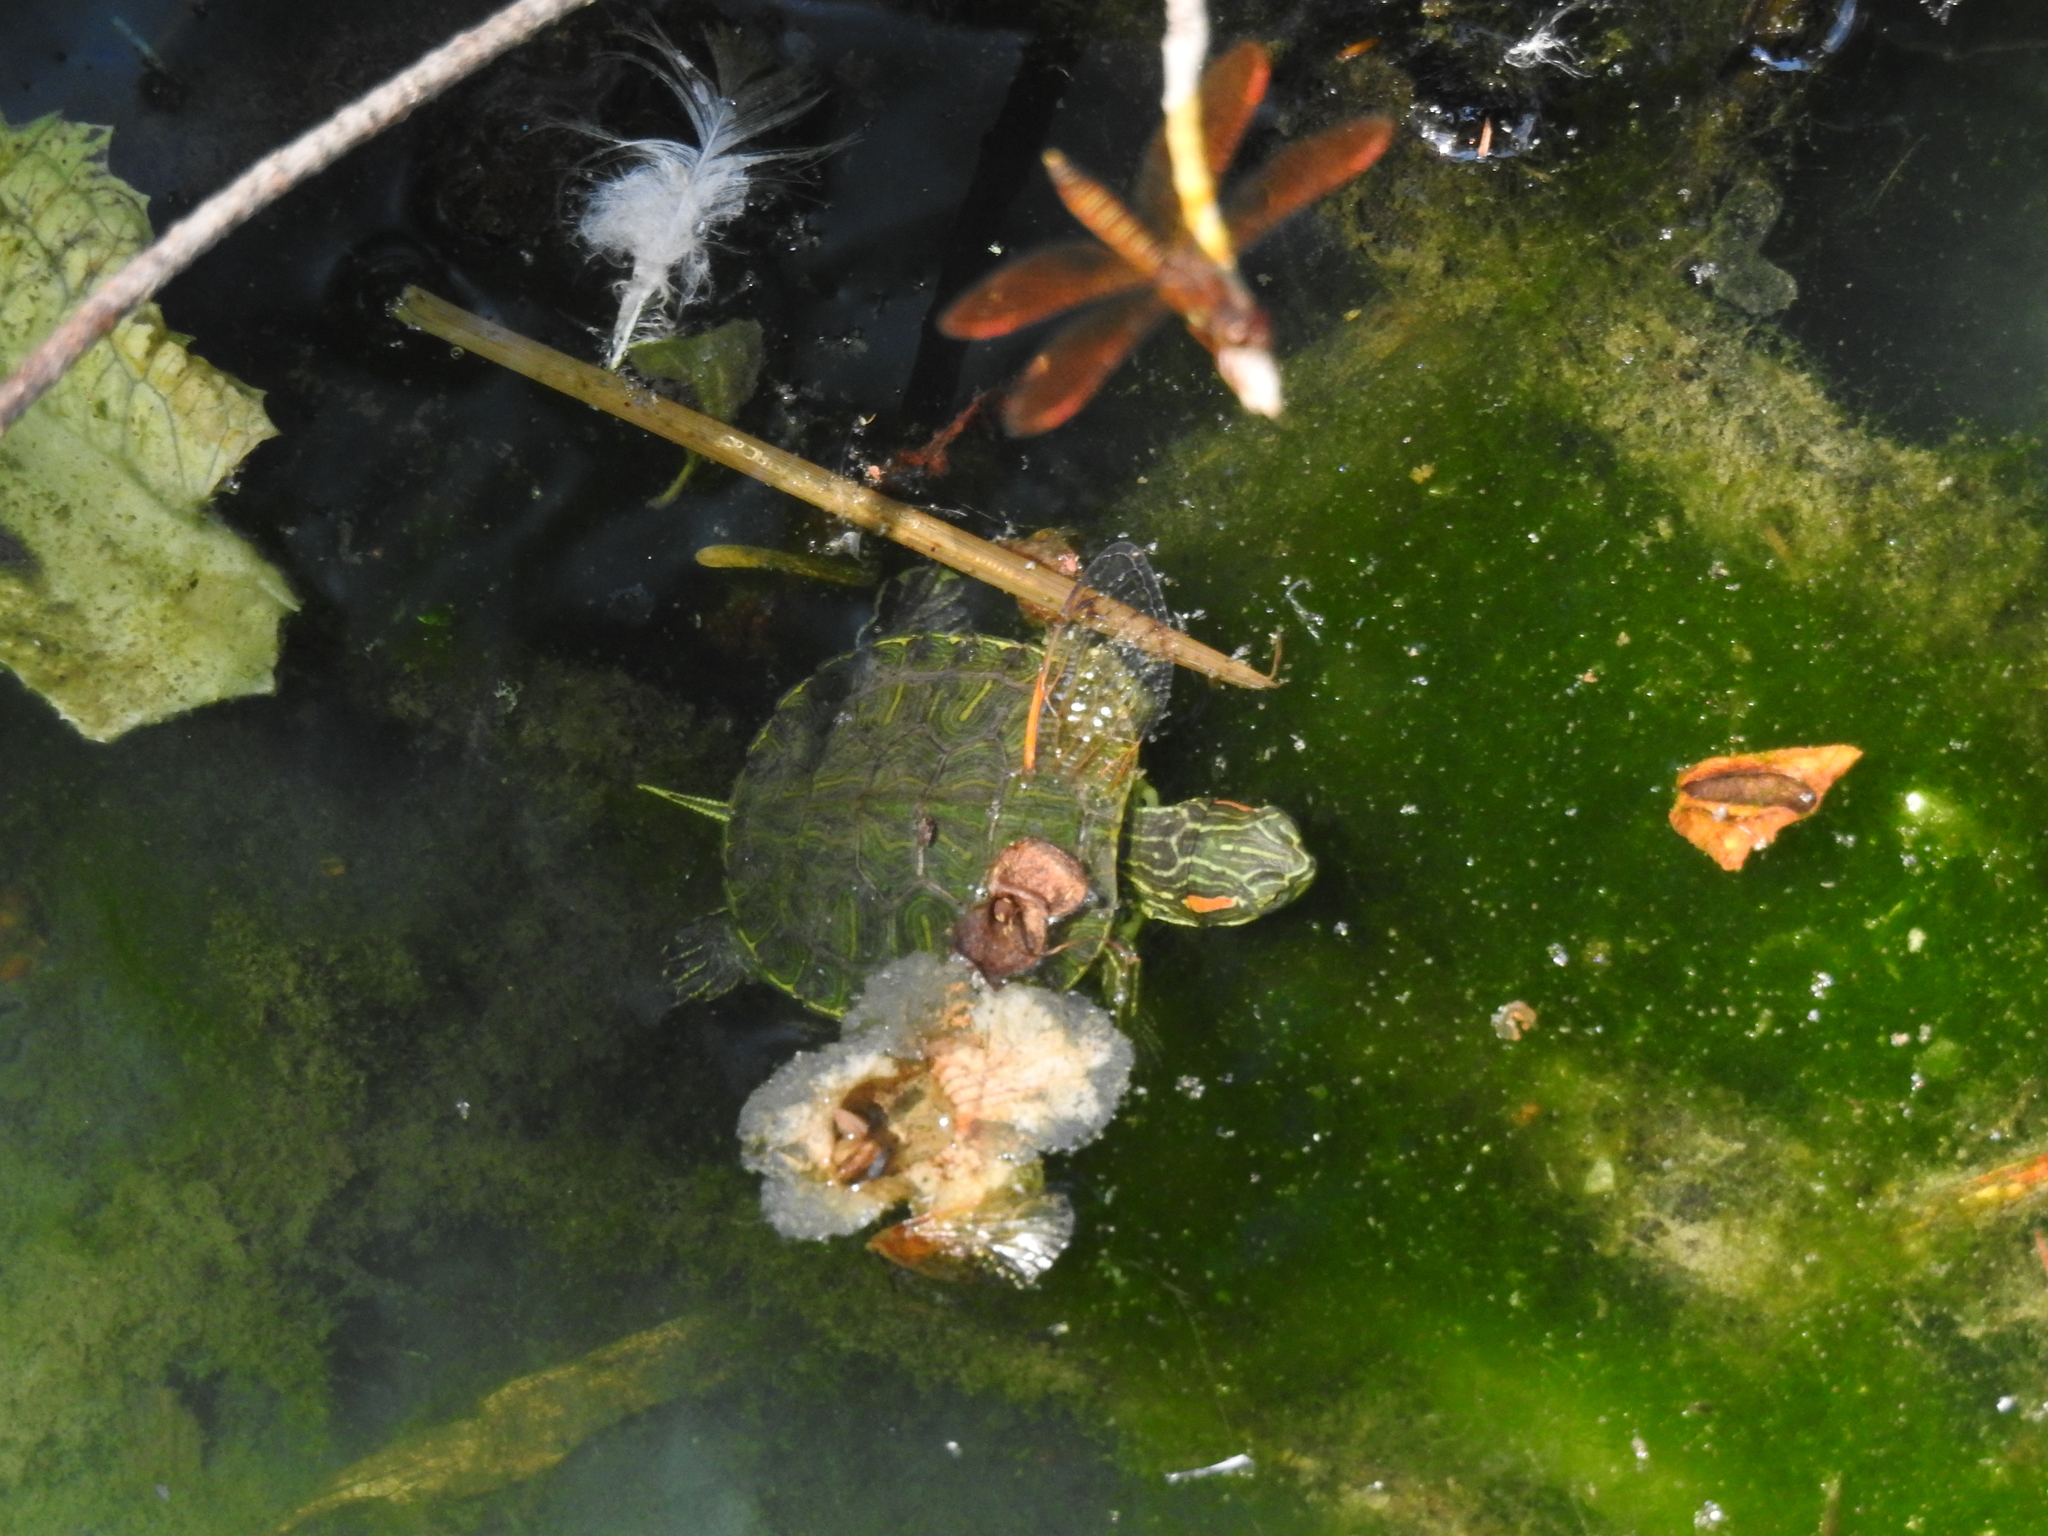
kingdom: Animalia
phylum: Chordata
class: Testudines
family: Emydidae
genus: Trachemys
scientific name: Trachemys scripta
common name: Slider
